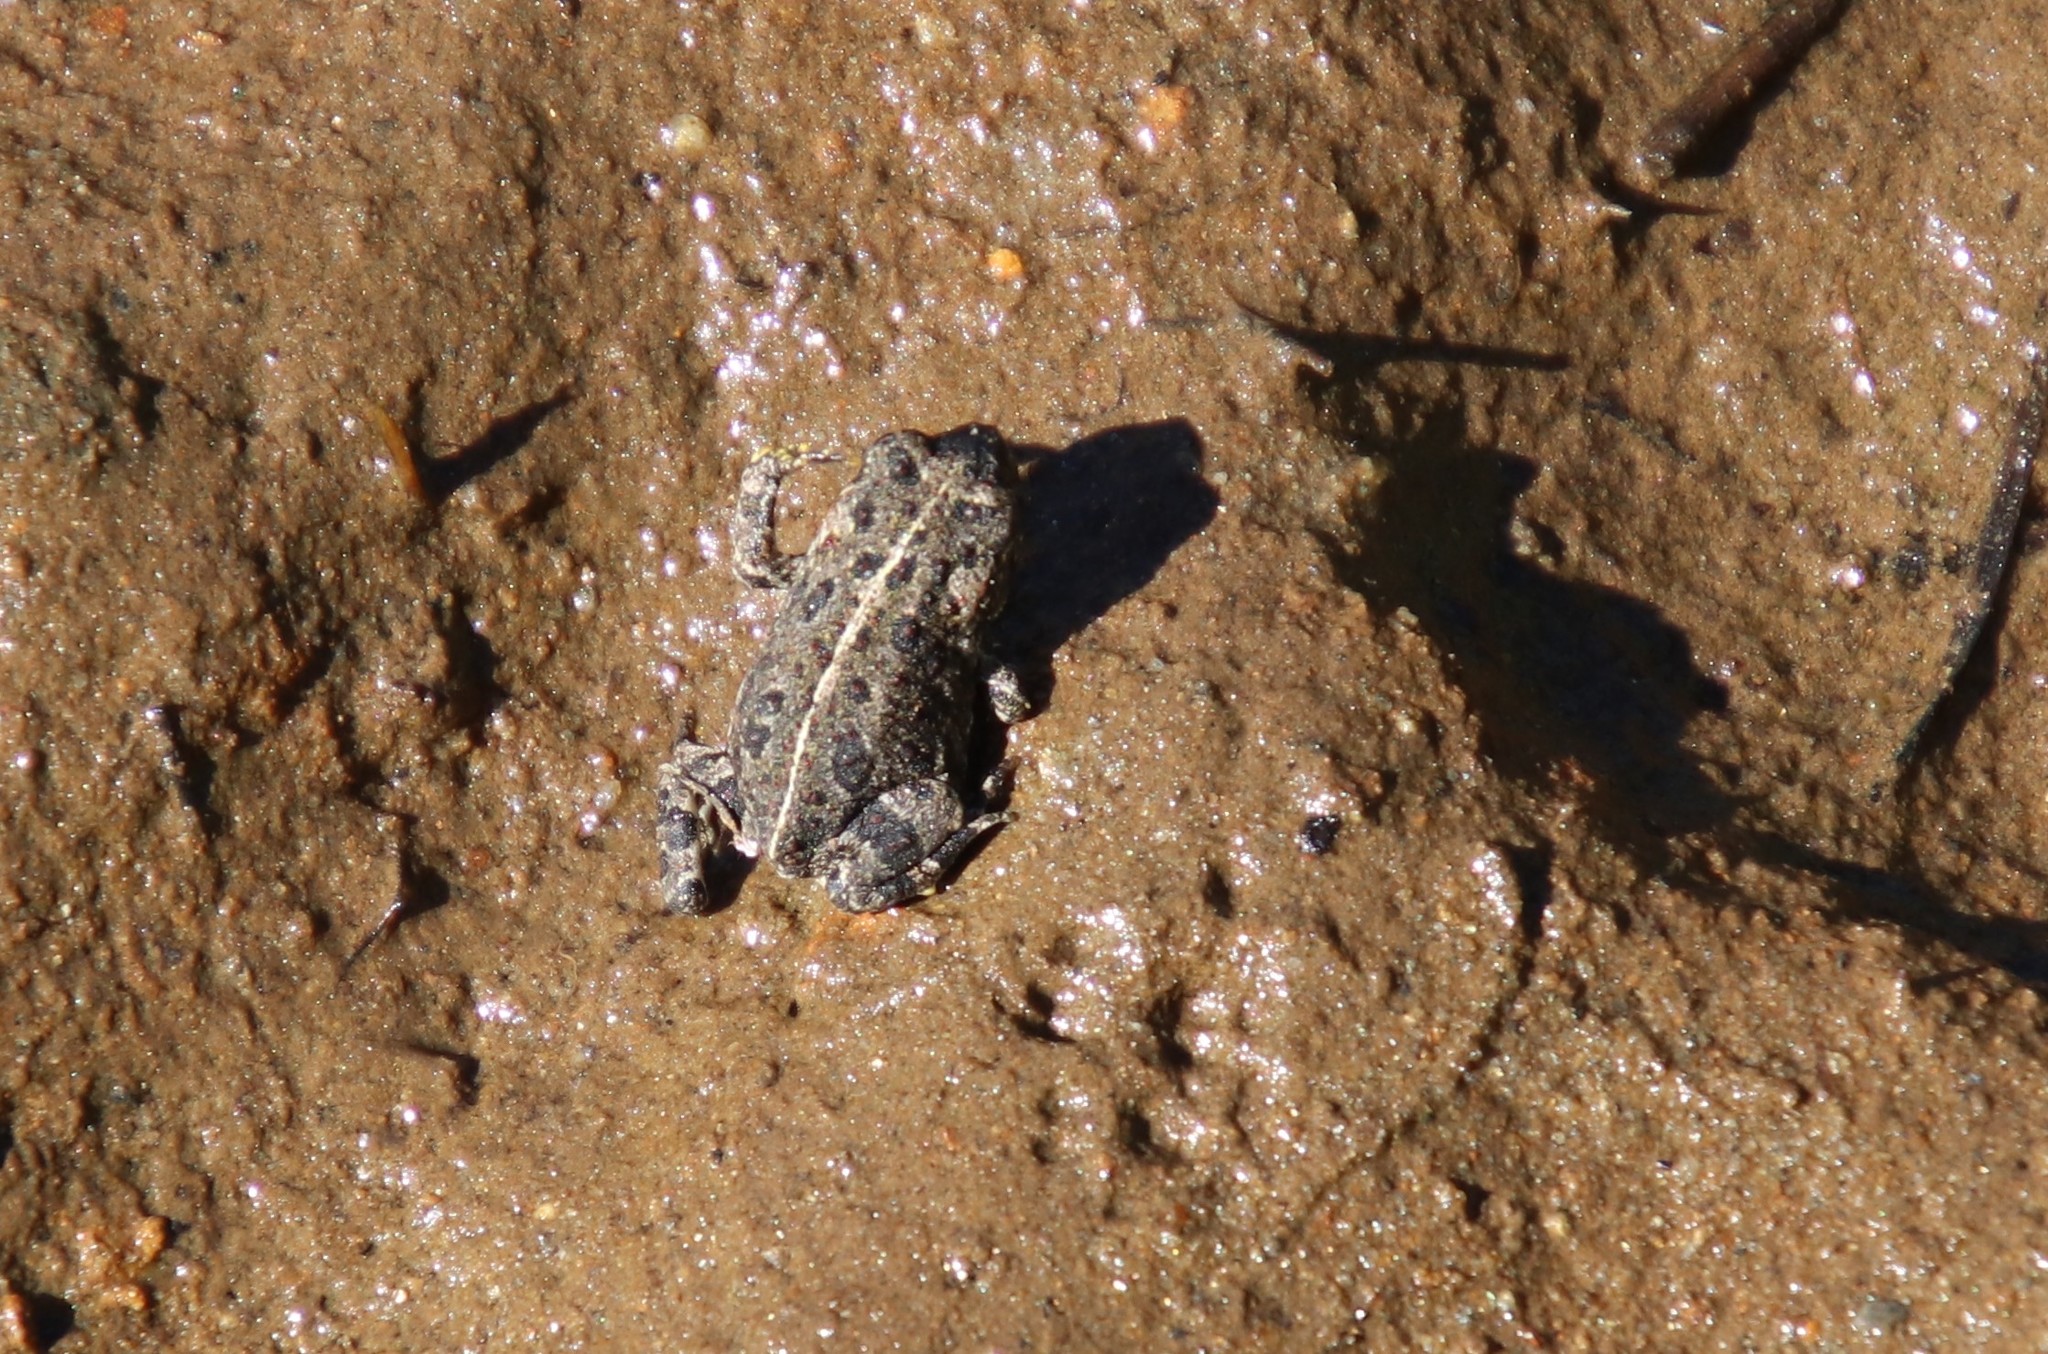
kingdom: Animalia
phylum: Chordata
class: Amphibia
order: Anura
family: Bufonidae
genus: Anaxyrus
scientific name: Anaxyrus boreas
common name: Western toad
